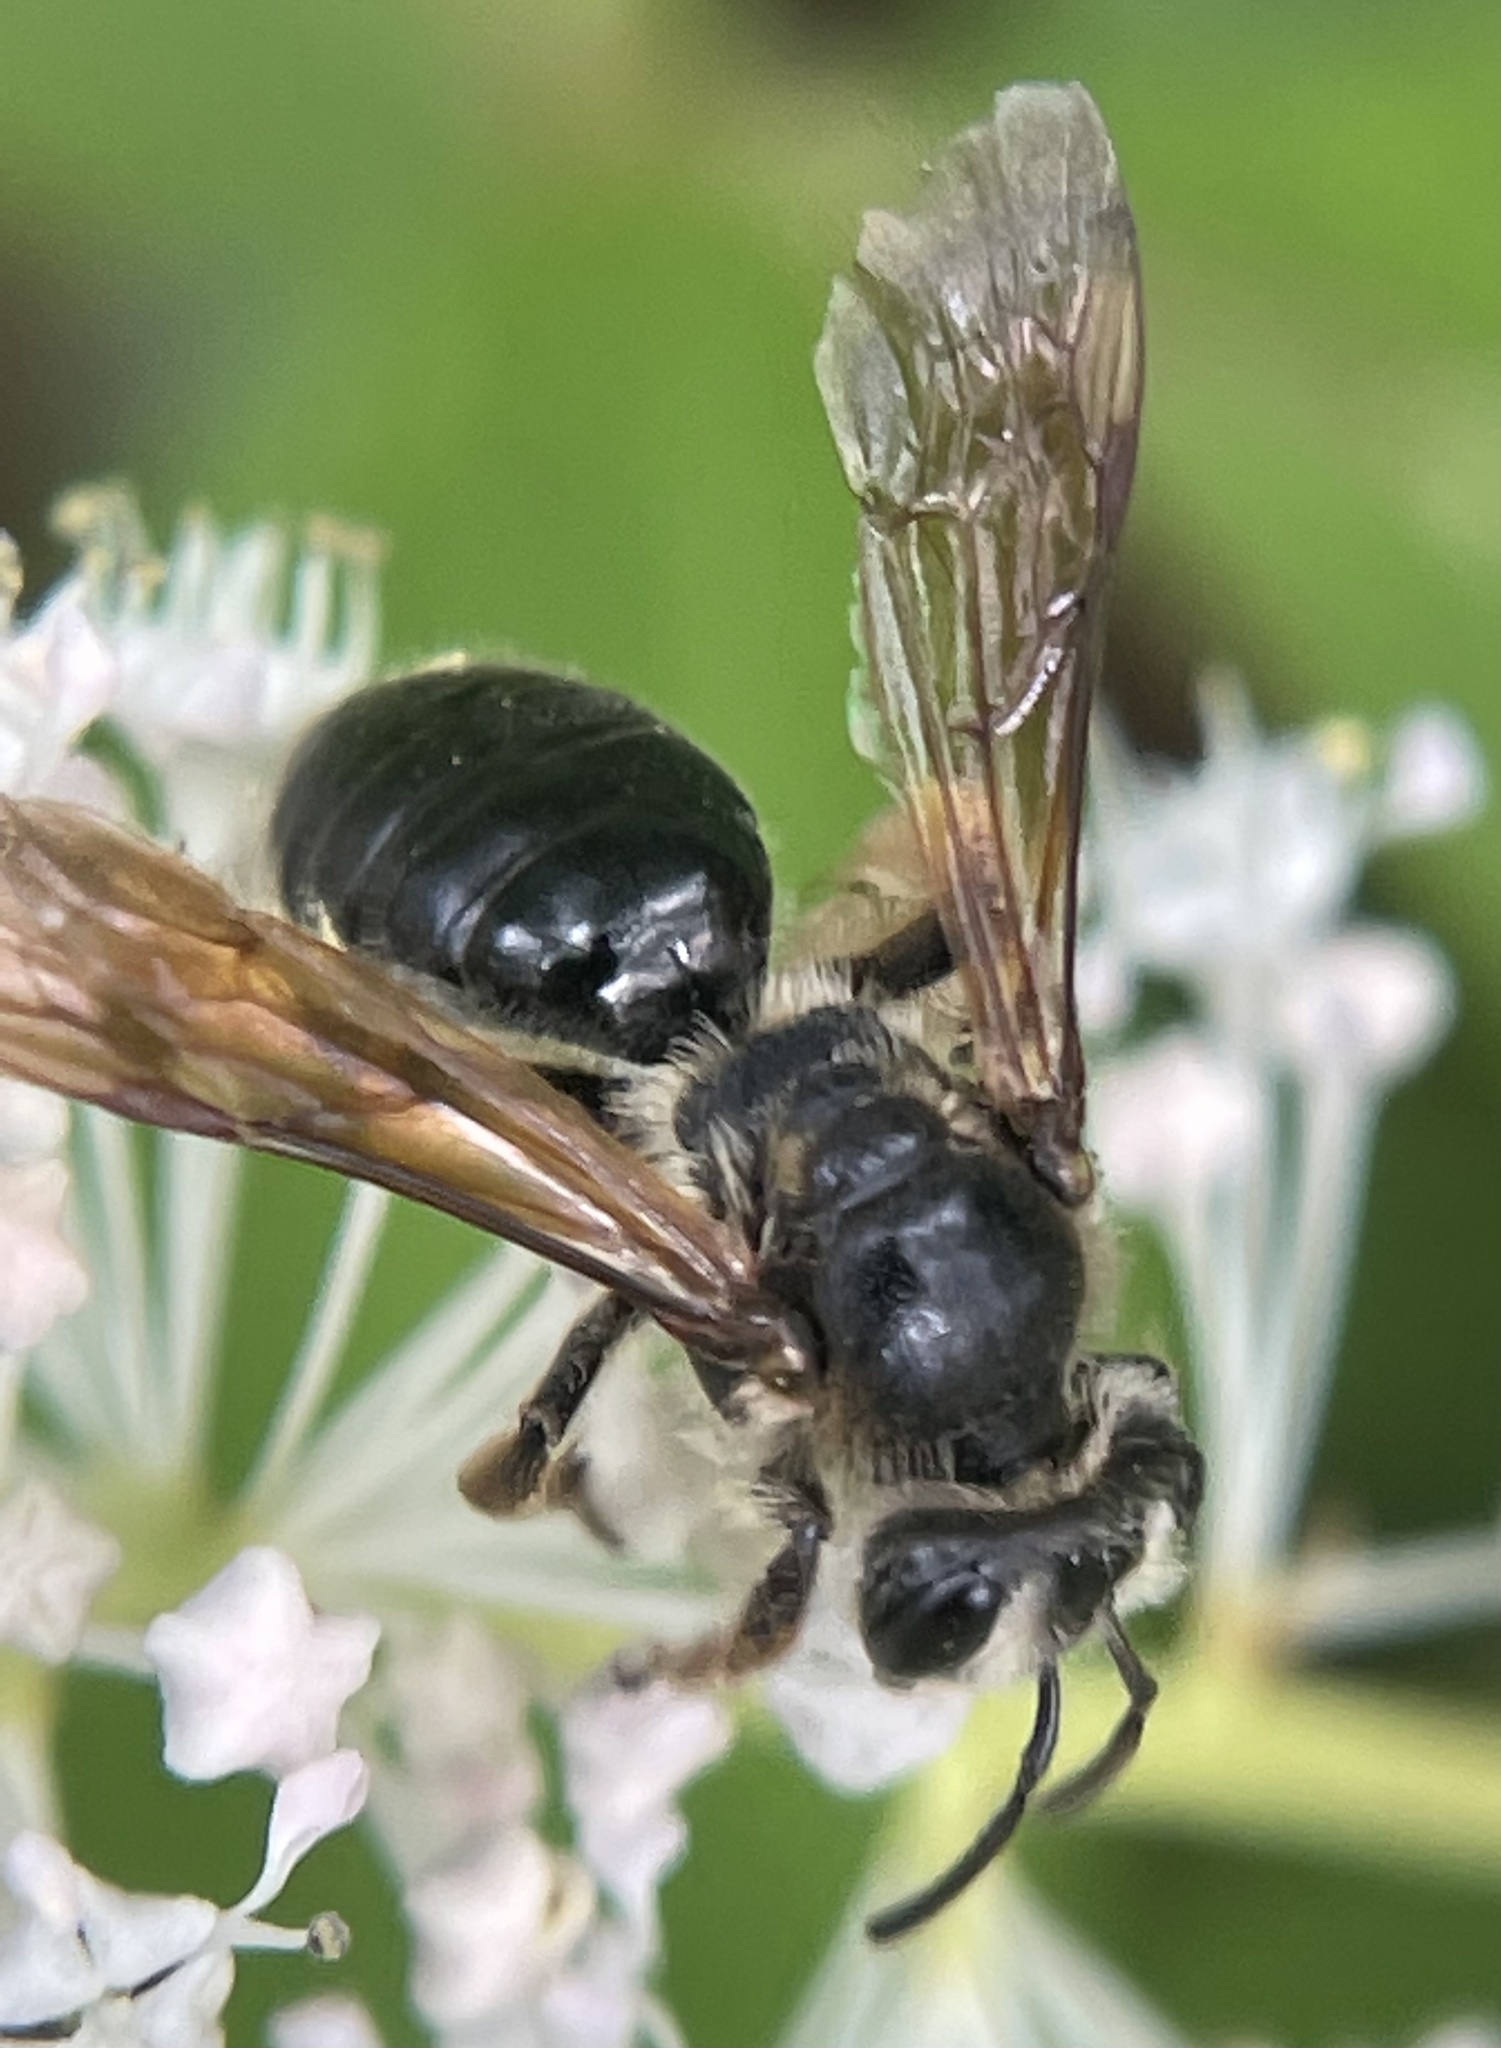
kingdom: Animalia
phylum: Arthropoda
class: Insecta
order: Hymenoptera
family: Andrenidae
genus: Andrena
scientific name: Andrena crataegi
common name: Hawthorn mining bee
